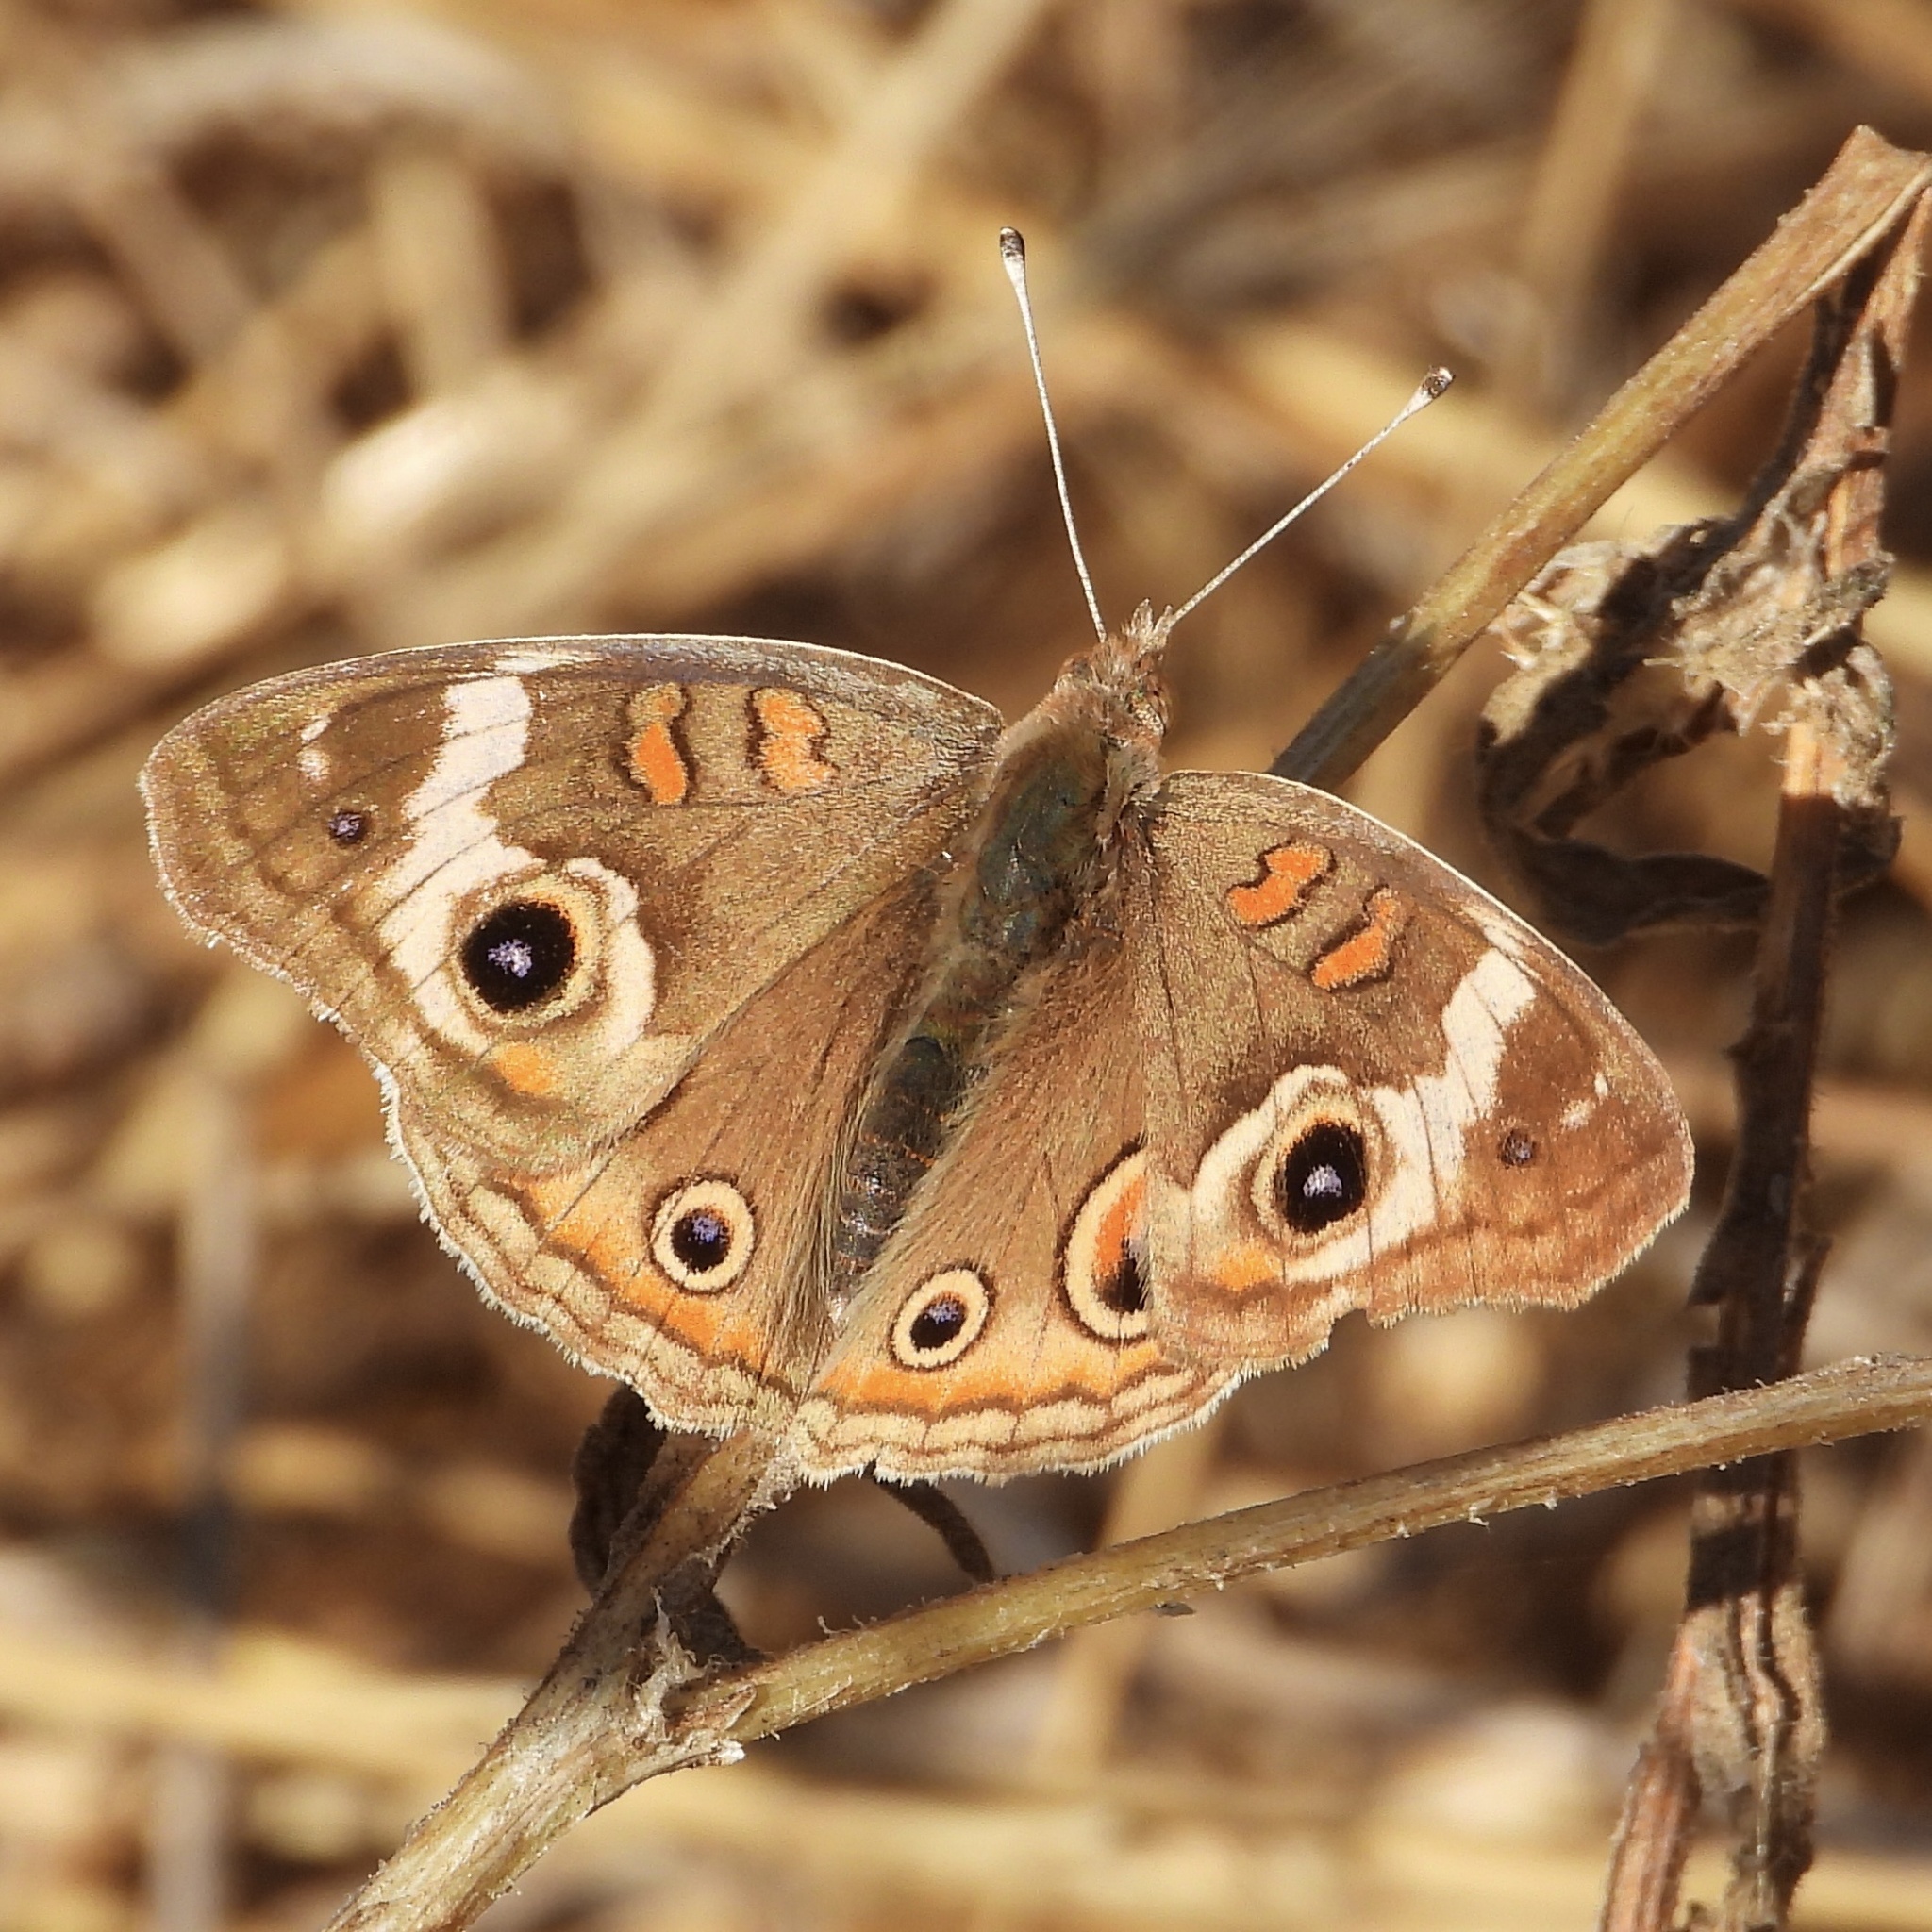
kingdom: Animalia
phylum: Arthropoda
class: Insecta
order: Lepidoptera
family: Nymphalidae
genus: Junonia
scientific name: Junonia grisea
